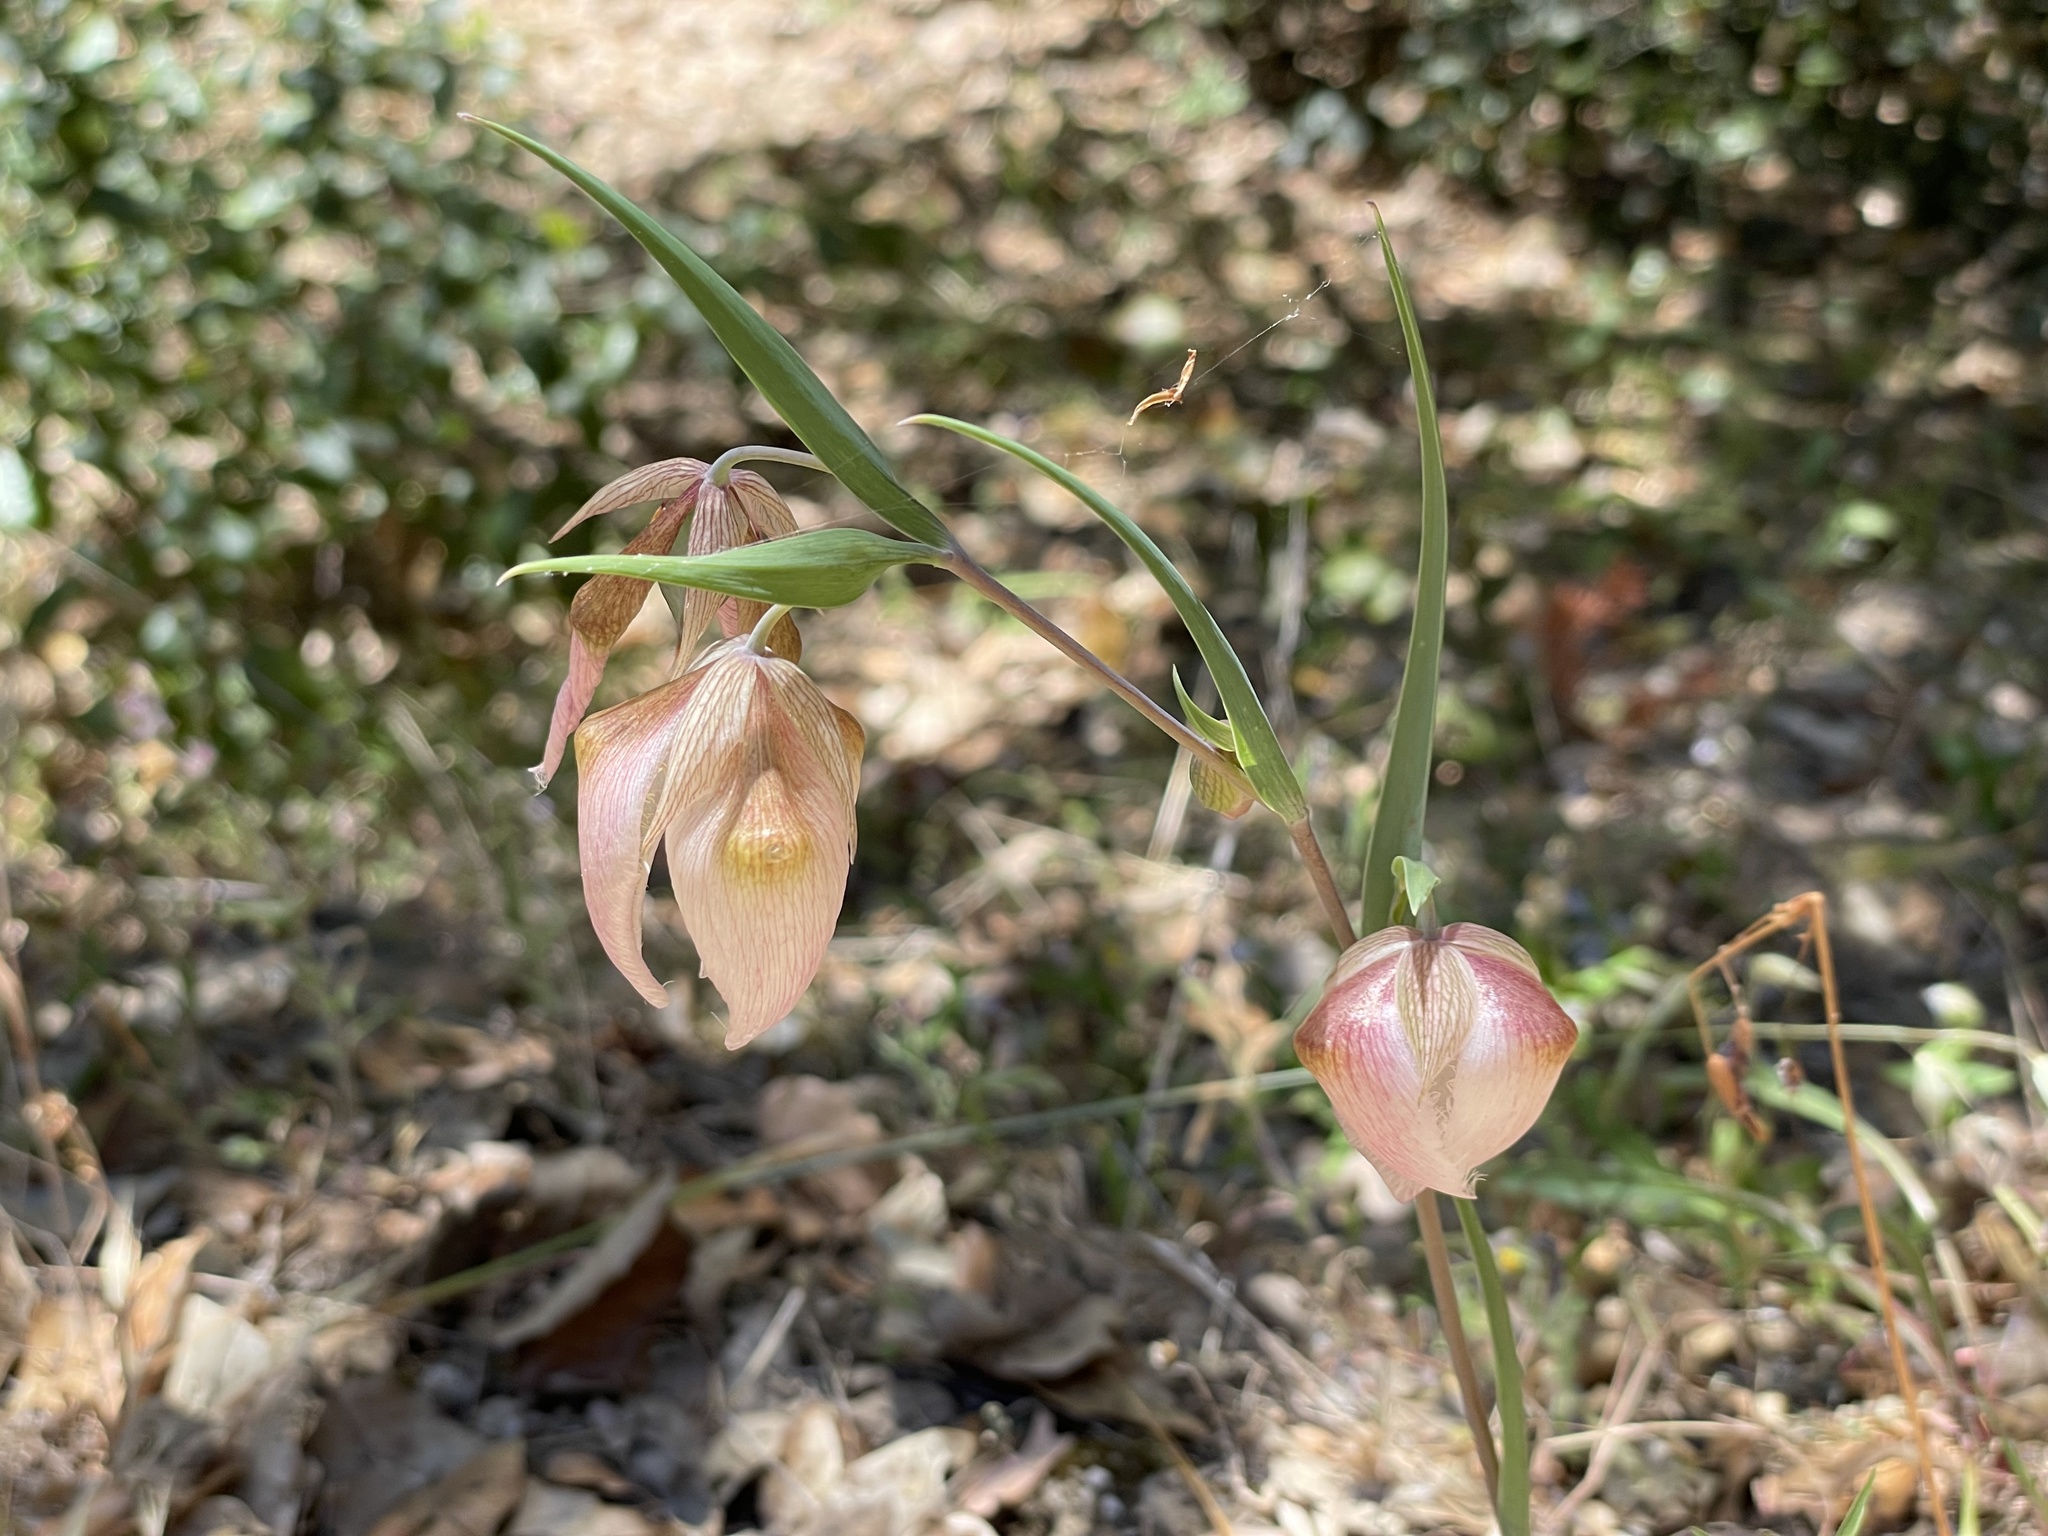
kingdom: Plantae
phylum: Tracheophyta
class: Liliopsida
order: Liliales
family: Liliaceae
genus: Calochortus
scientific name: Calochortus albus
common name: Fairy-lantern
